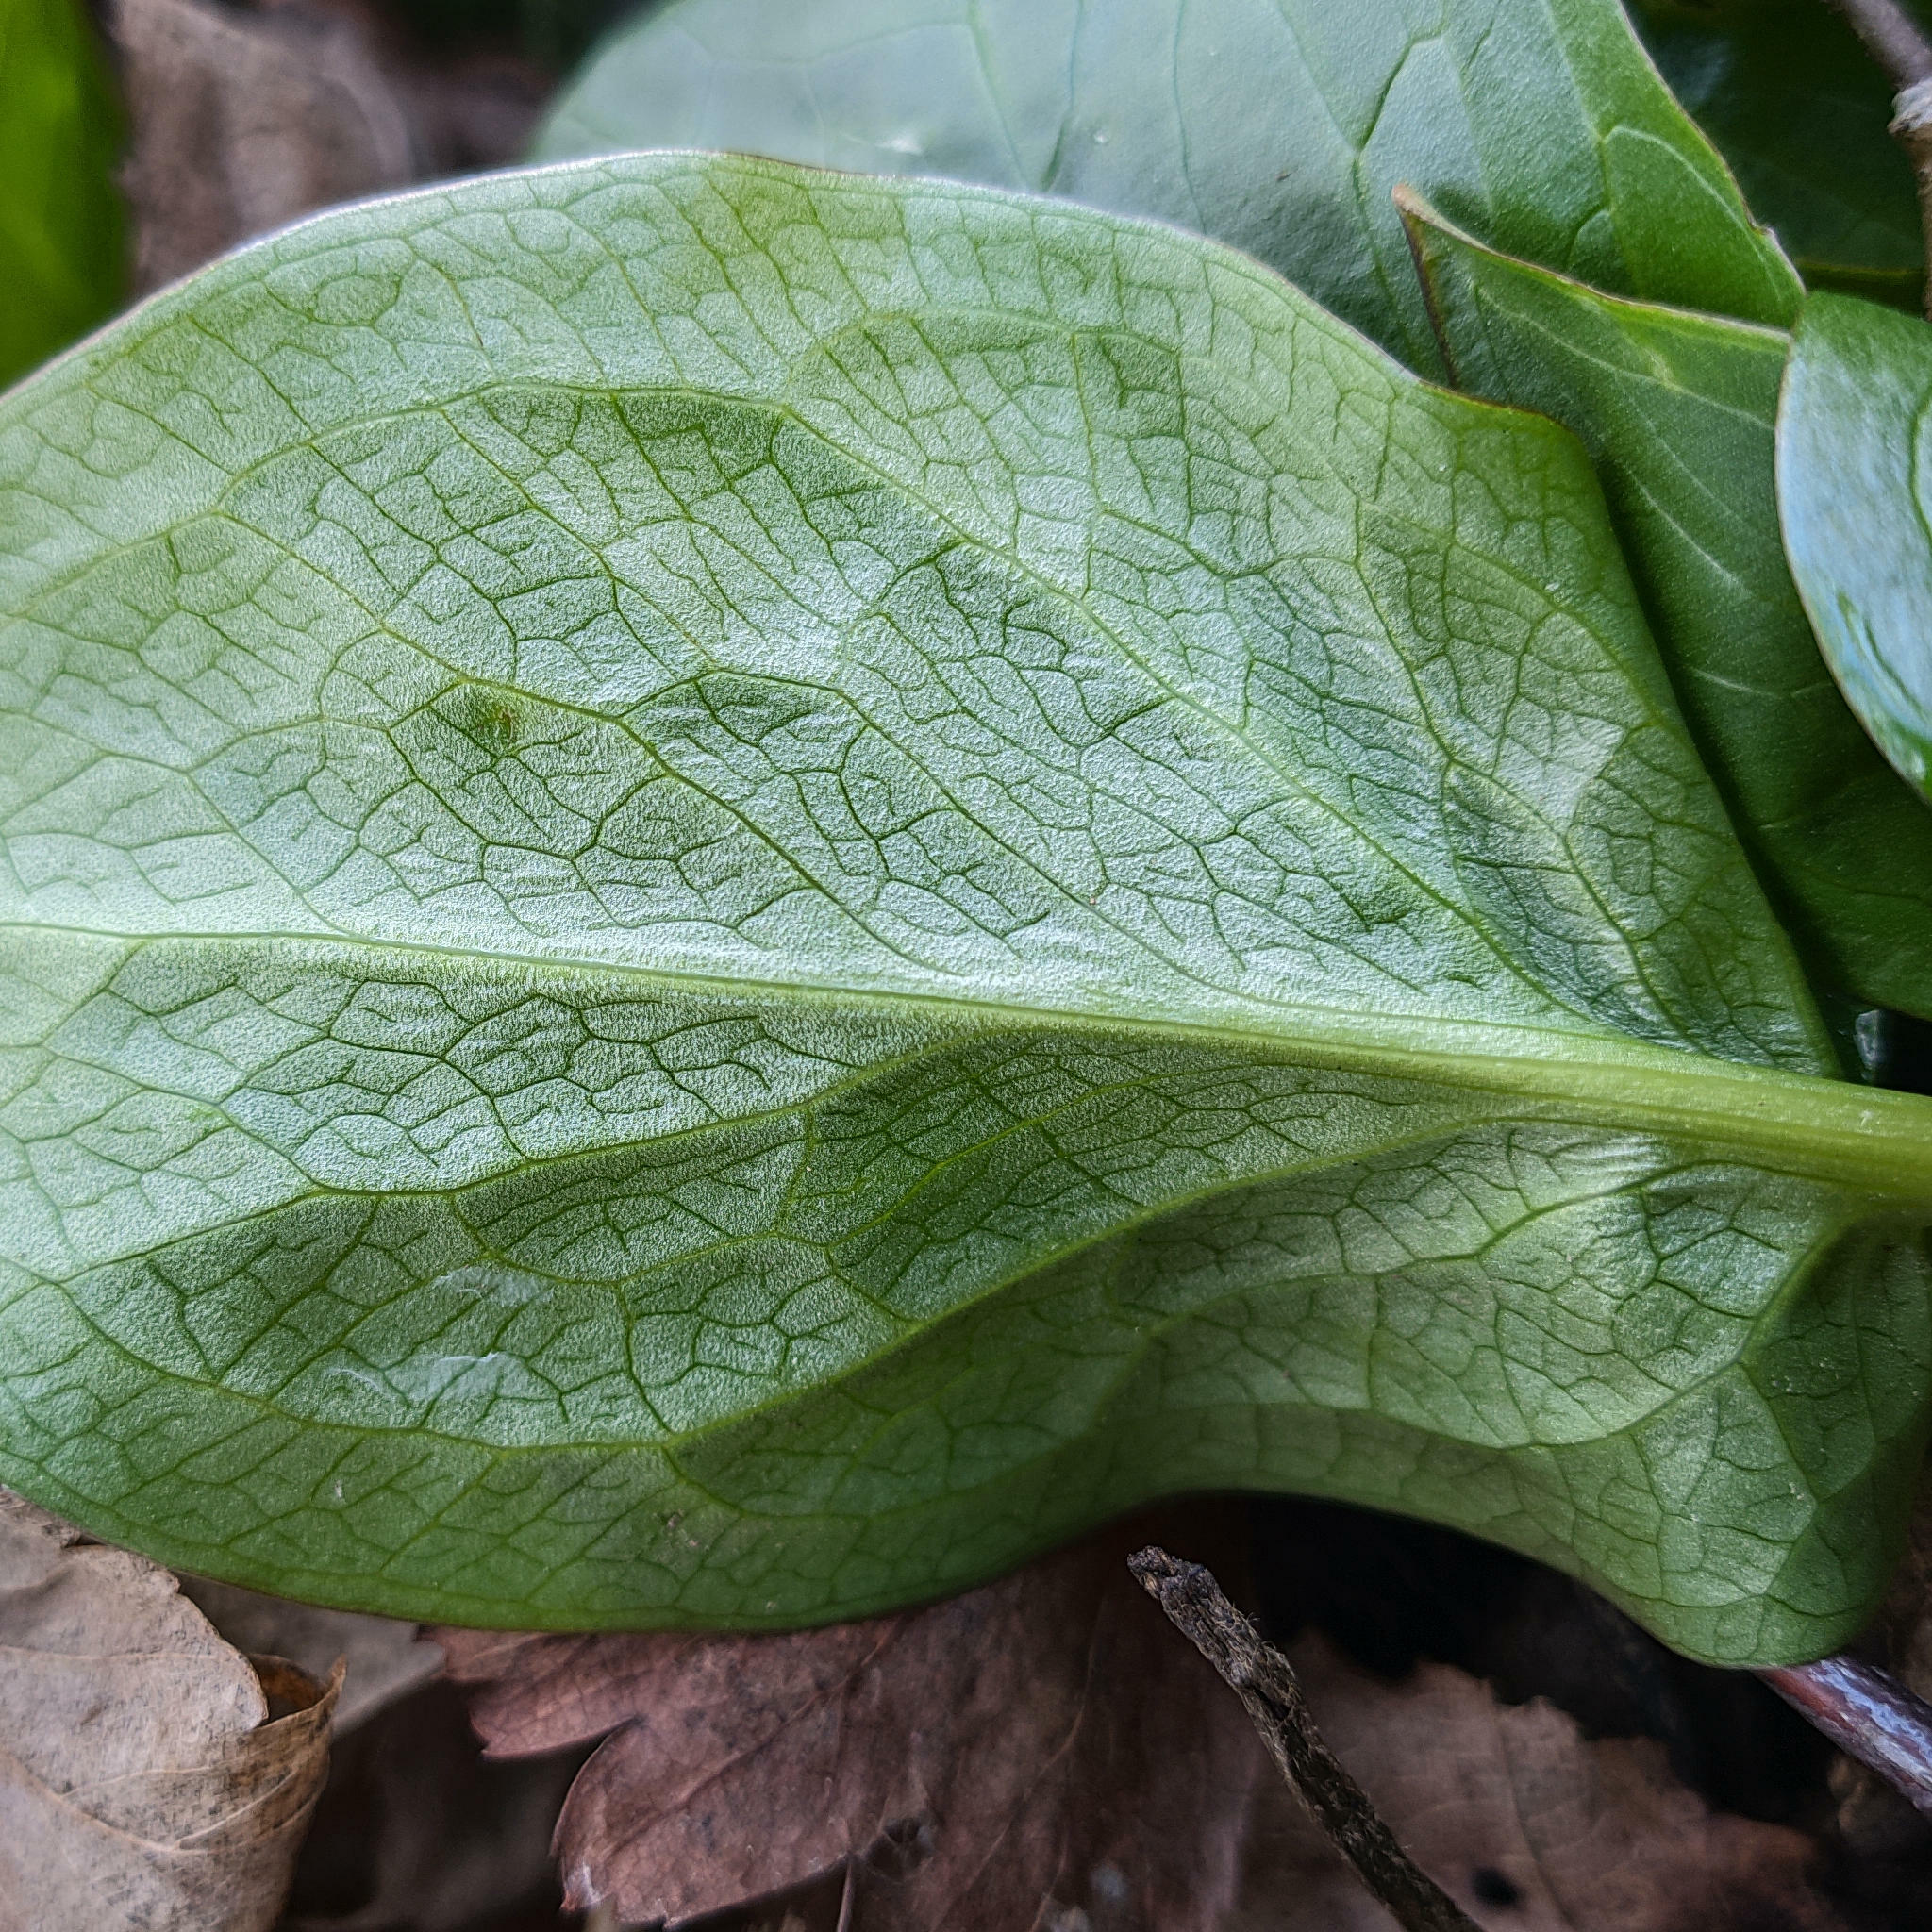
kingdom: Plantae
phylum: Tracheophyta
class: Liliopsida
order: Alismatales
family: Araceae
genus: Arum
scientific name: Arum maculatum
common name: Lords-and-ladies
